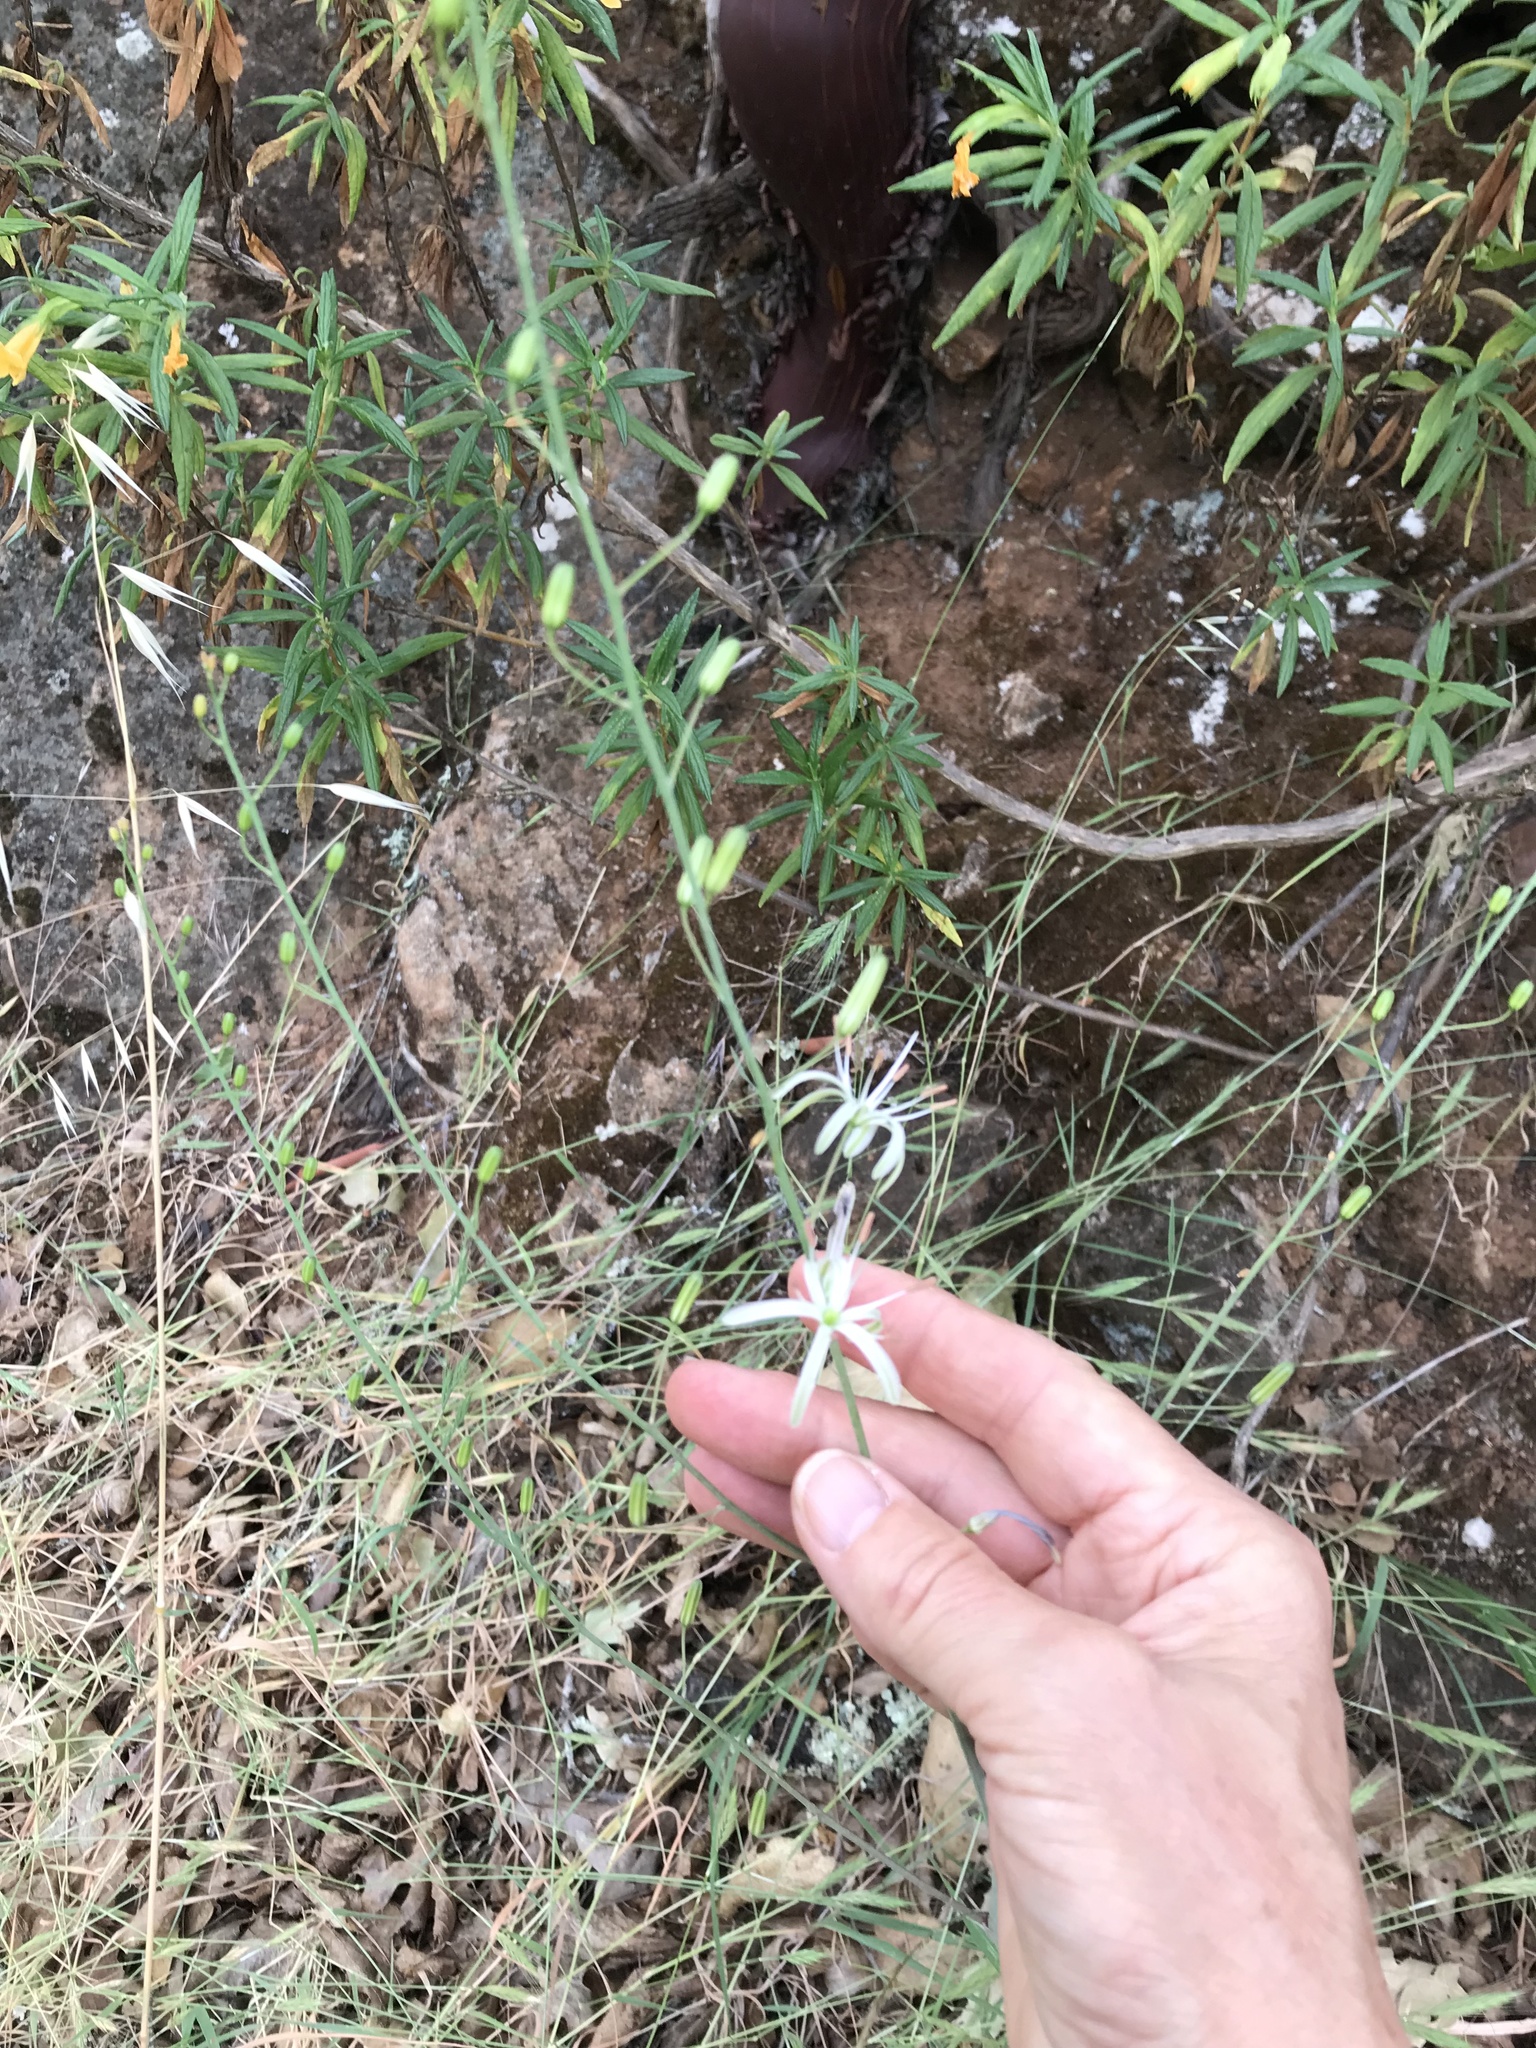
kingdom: Plantae
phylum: Tracheophyta
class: Liliopsida
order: Asparagales
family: Asparagaceae
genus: Chlorogalum
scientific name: Chlorogalum pomeridianum
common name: Amole
